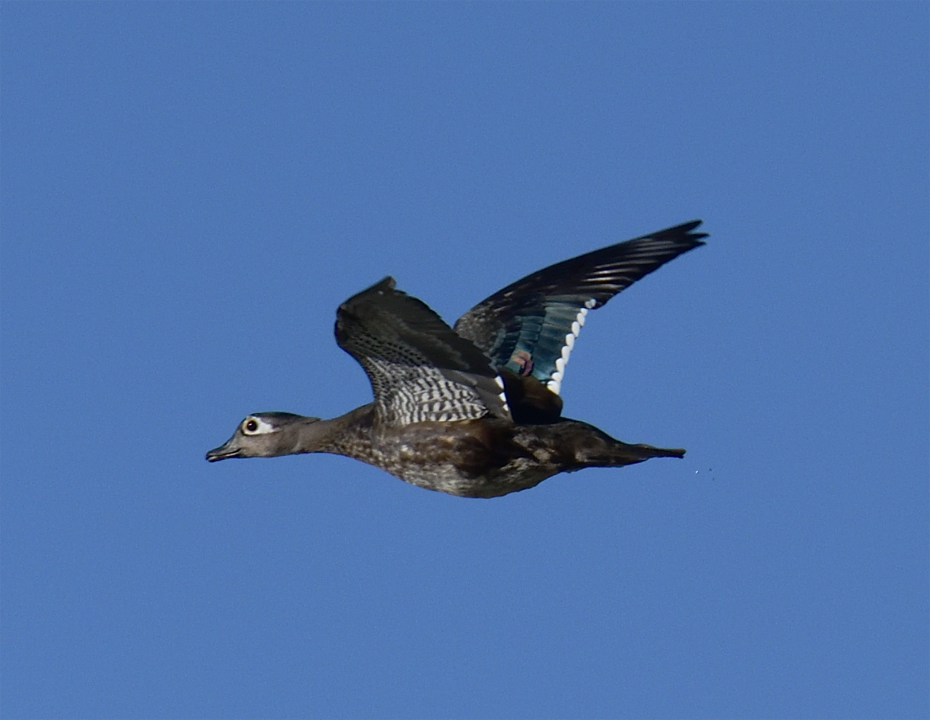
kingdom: Animalia
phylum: Chordata
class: Aves
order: Anseriformes
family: Anatidae
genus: Aix
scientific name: Aix sponsa
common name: Wood duck
